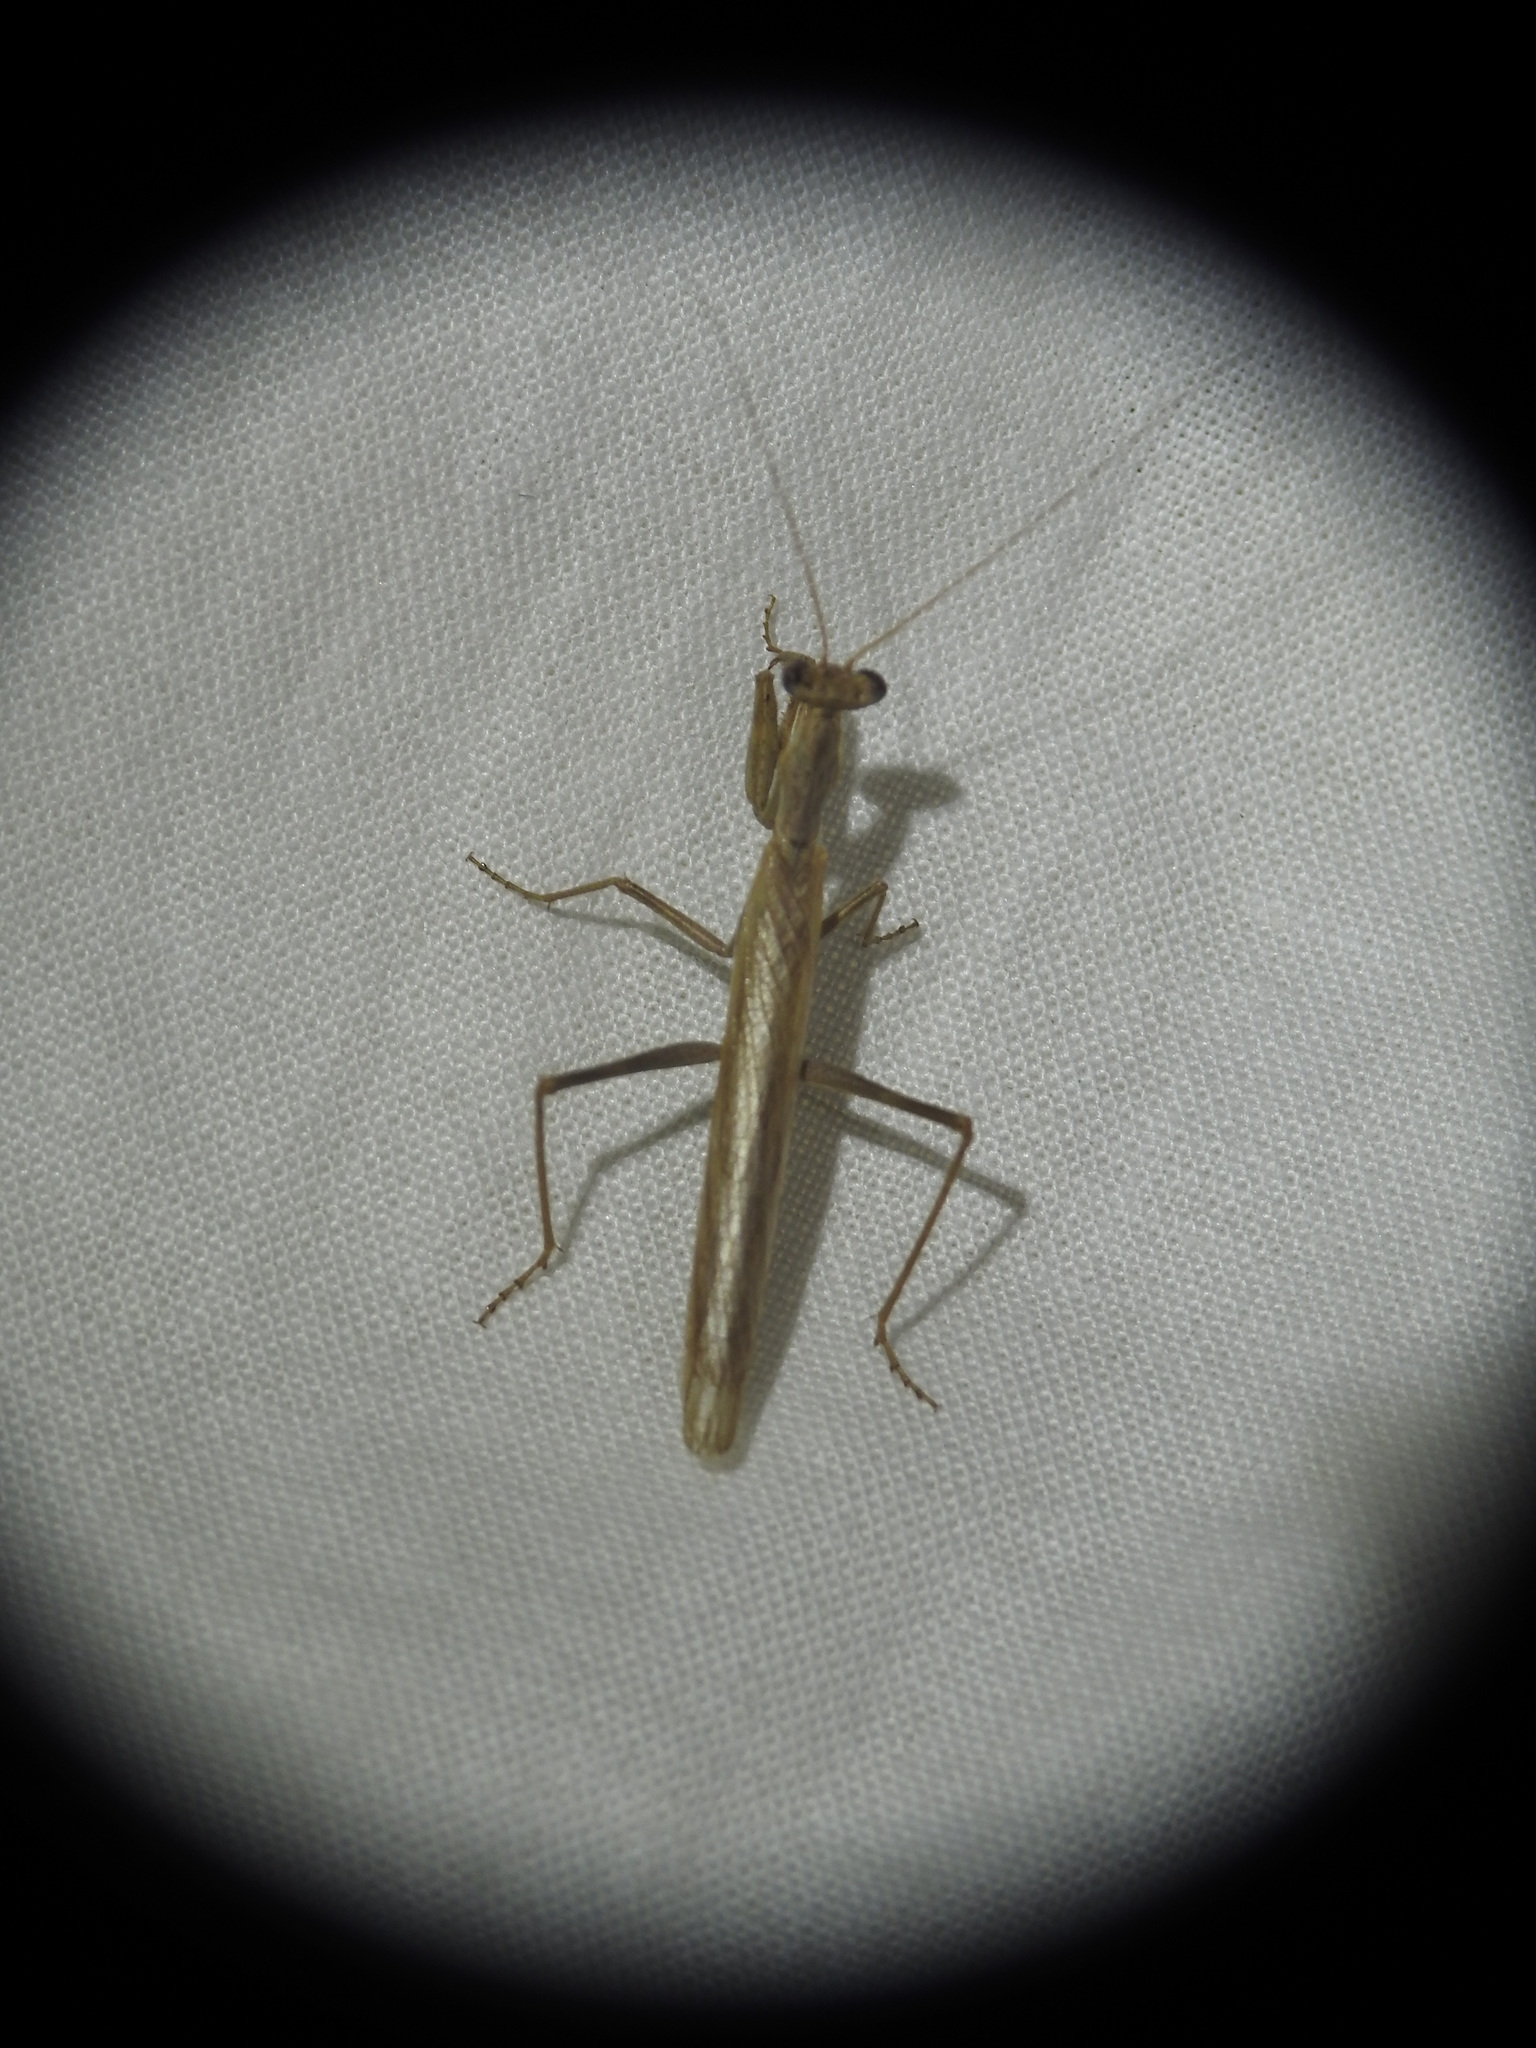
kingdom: Animalia
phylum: Arthropoda
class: Insecta
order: Mantodea
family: Amelidae
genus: Ameles
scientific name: Ameles decolor
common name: Dwarf mantis
